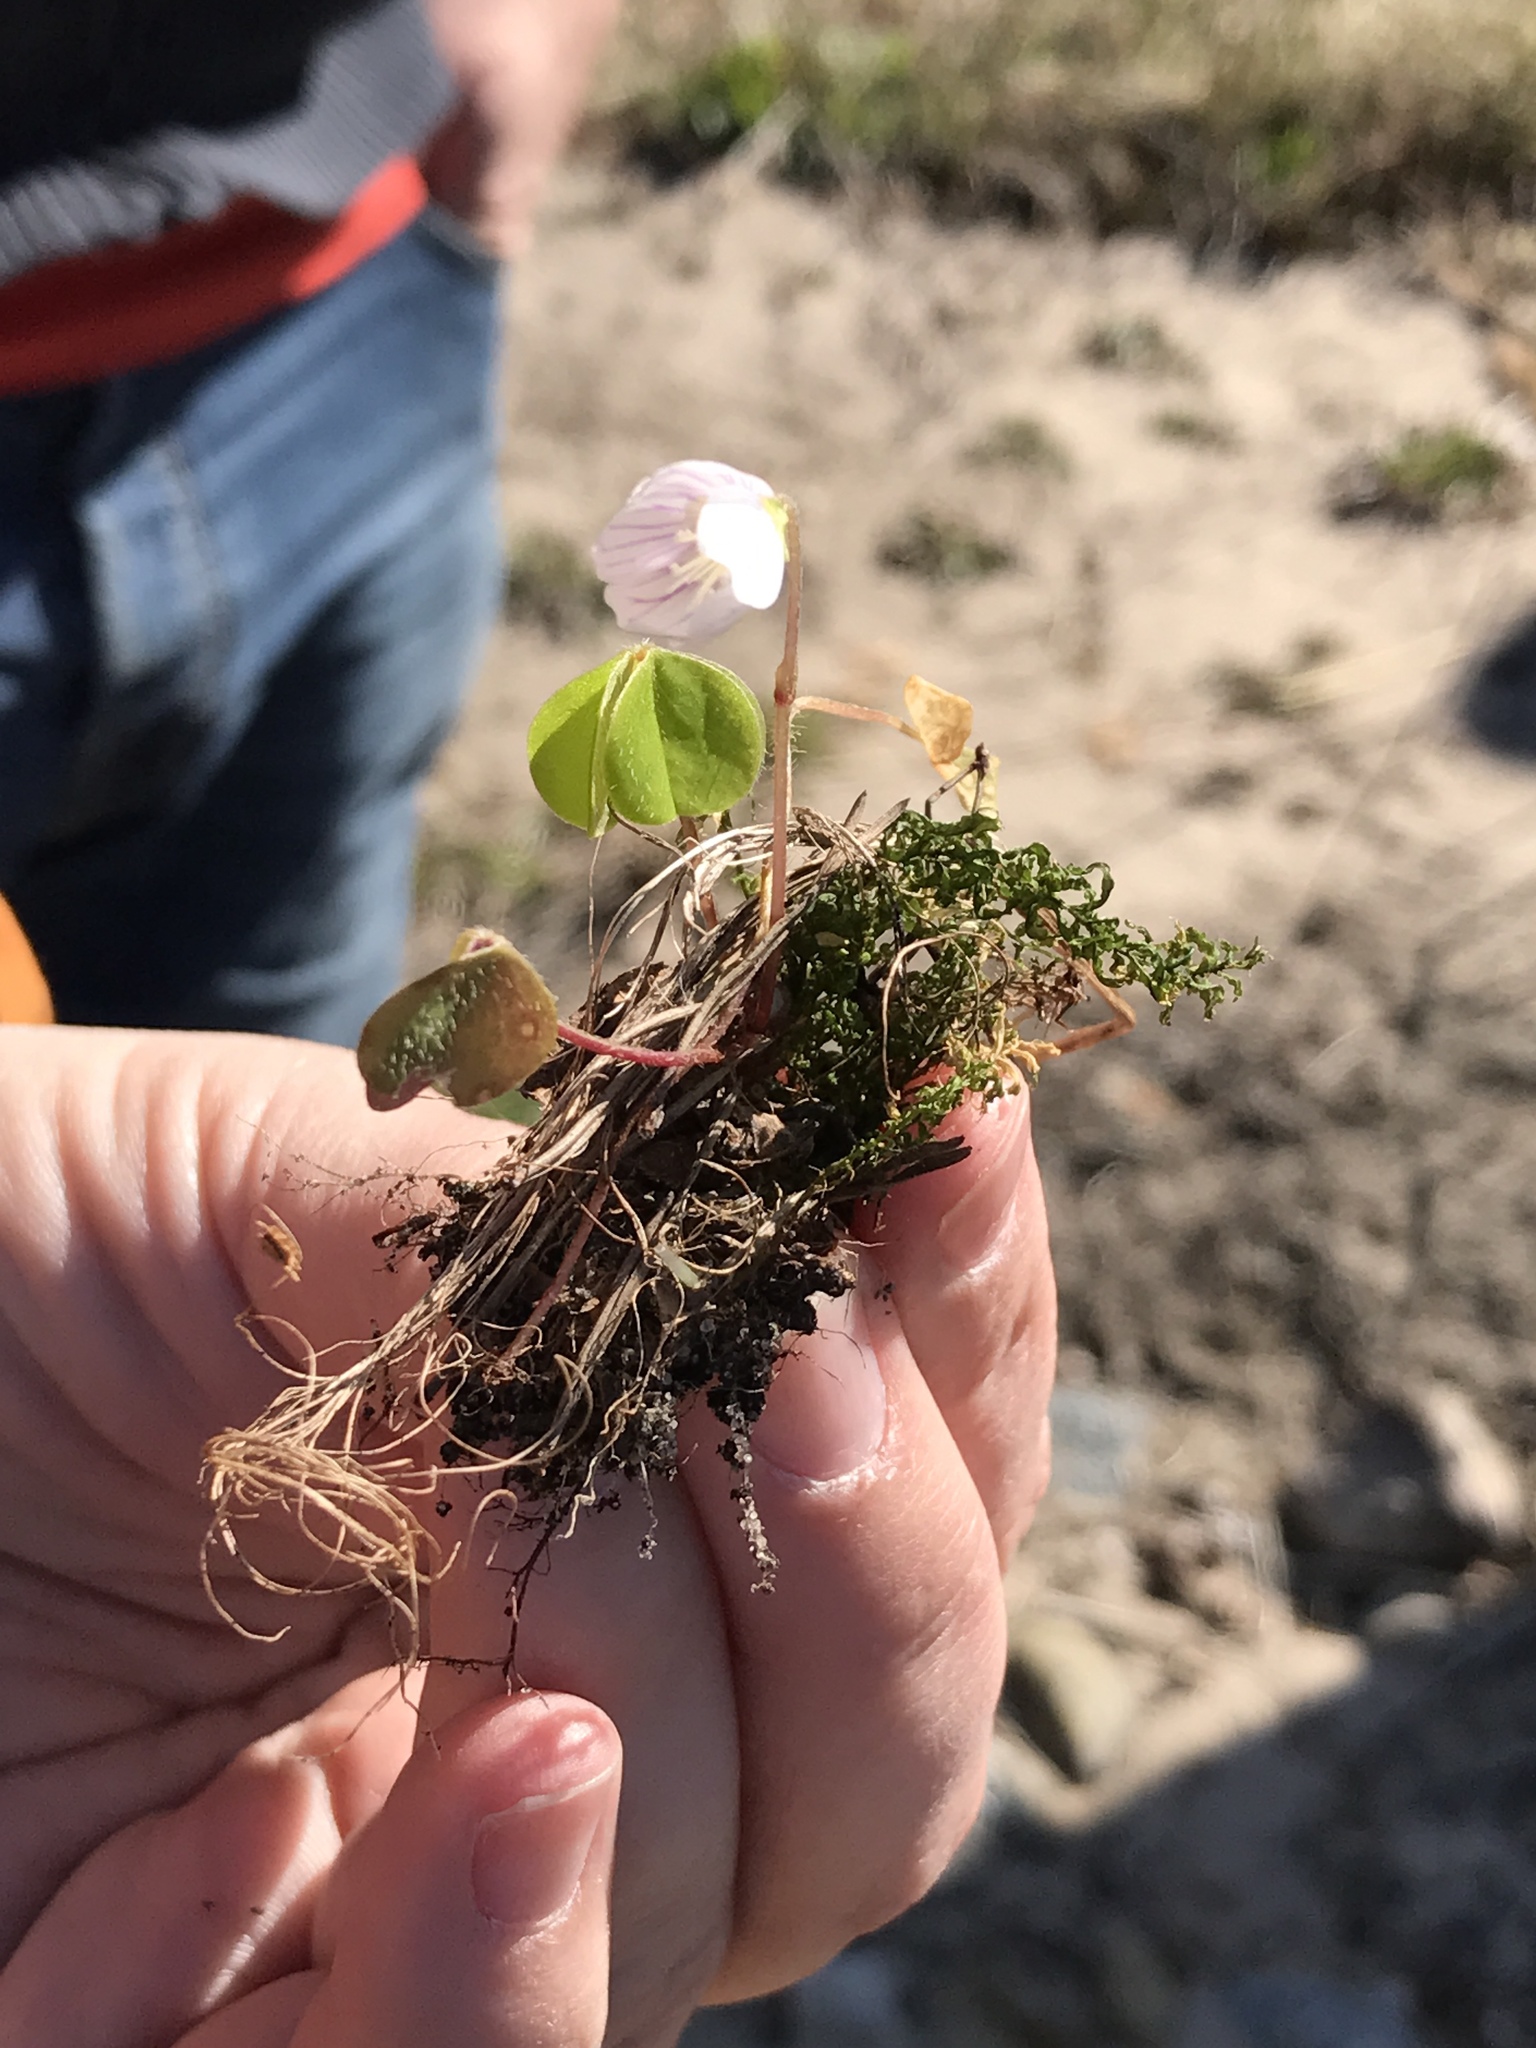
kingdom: Plantae
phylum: Tracheophyta
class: Magnoliopsida
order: Oxalidales
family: Oxalidaceae
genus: Oxalis
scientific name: Oxalis acetosella
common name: Wood-sorrel
